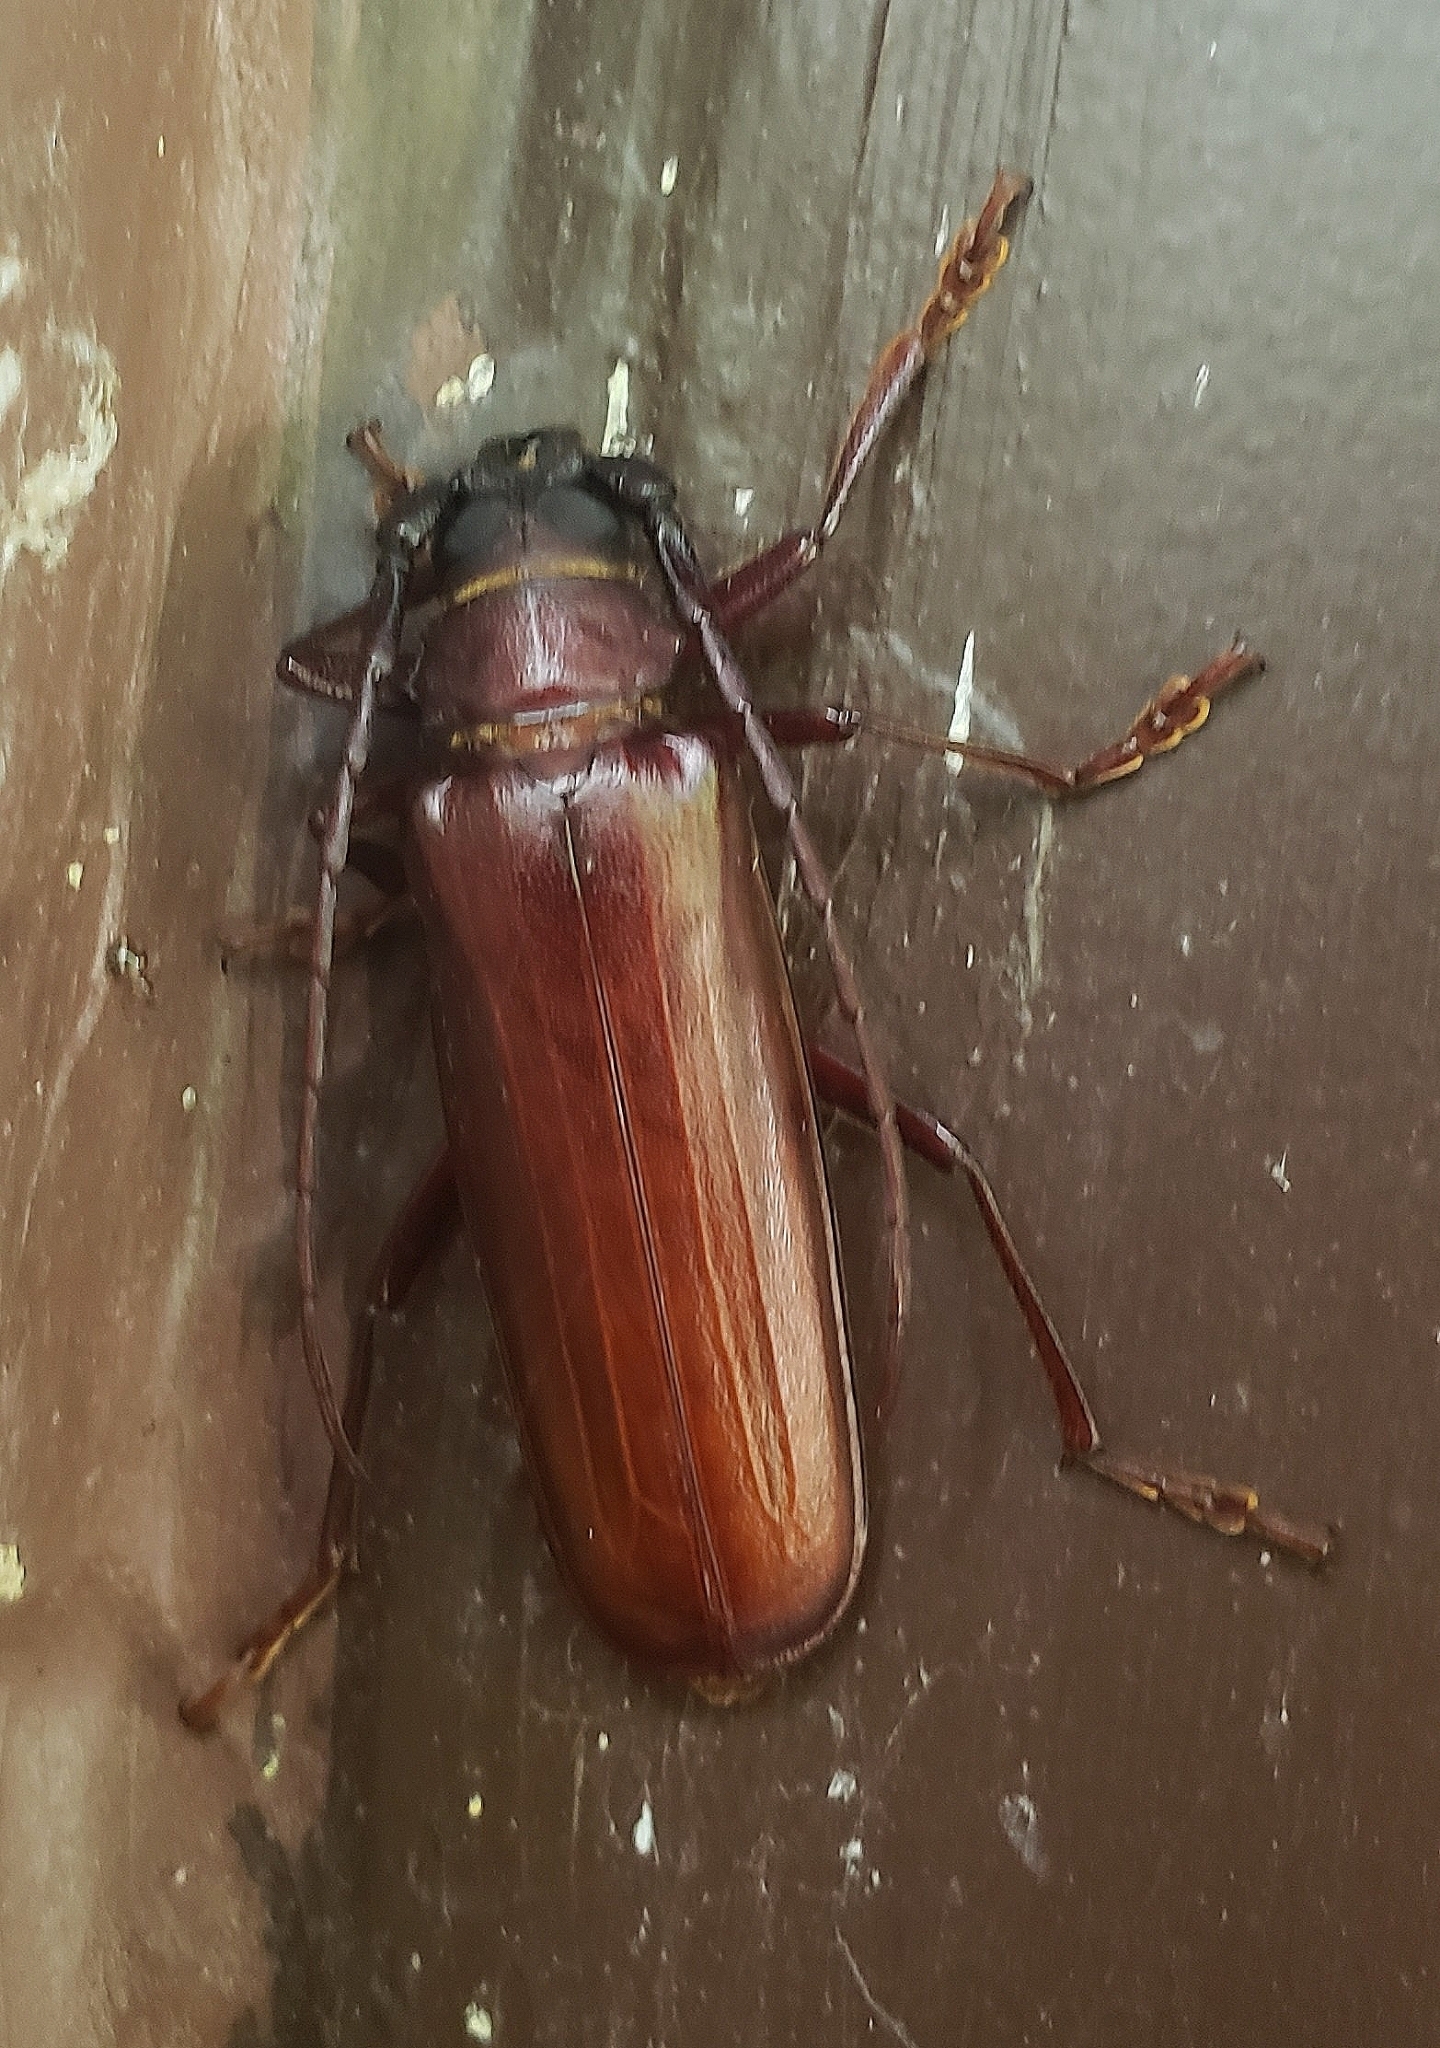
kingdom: Animalia
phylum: Arthropoda
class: Insecta
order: Coleoptera
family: Cerambycidae
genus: Orthosoma
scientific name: Orthosoma brunneum
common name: Brown prionid beetle
